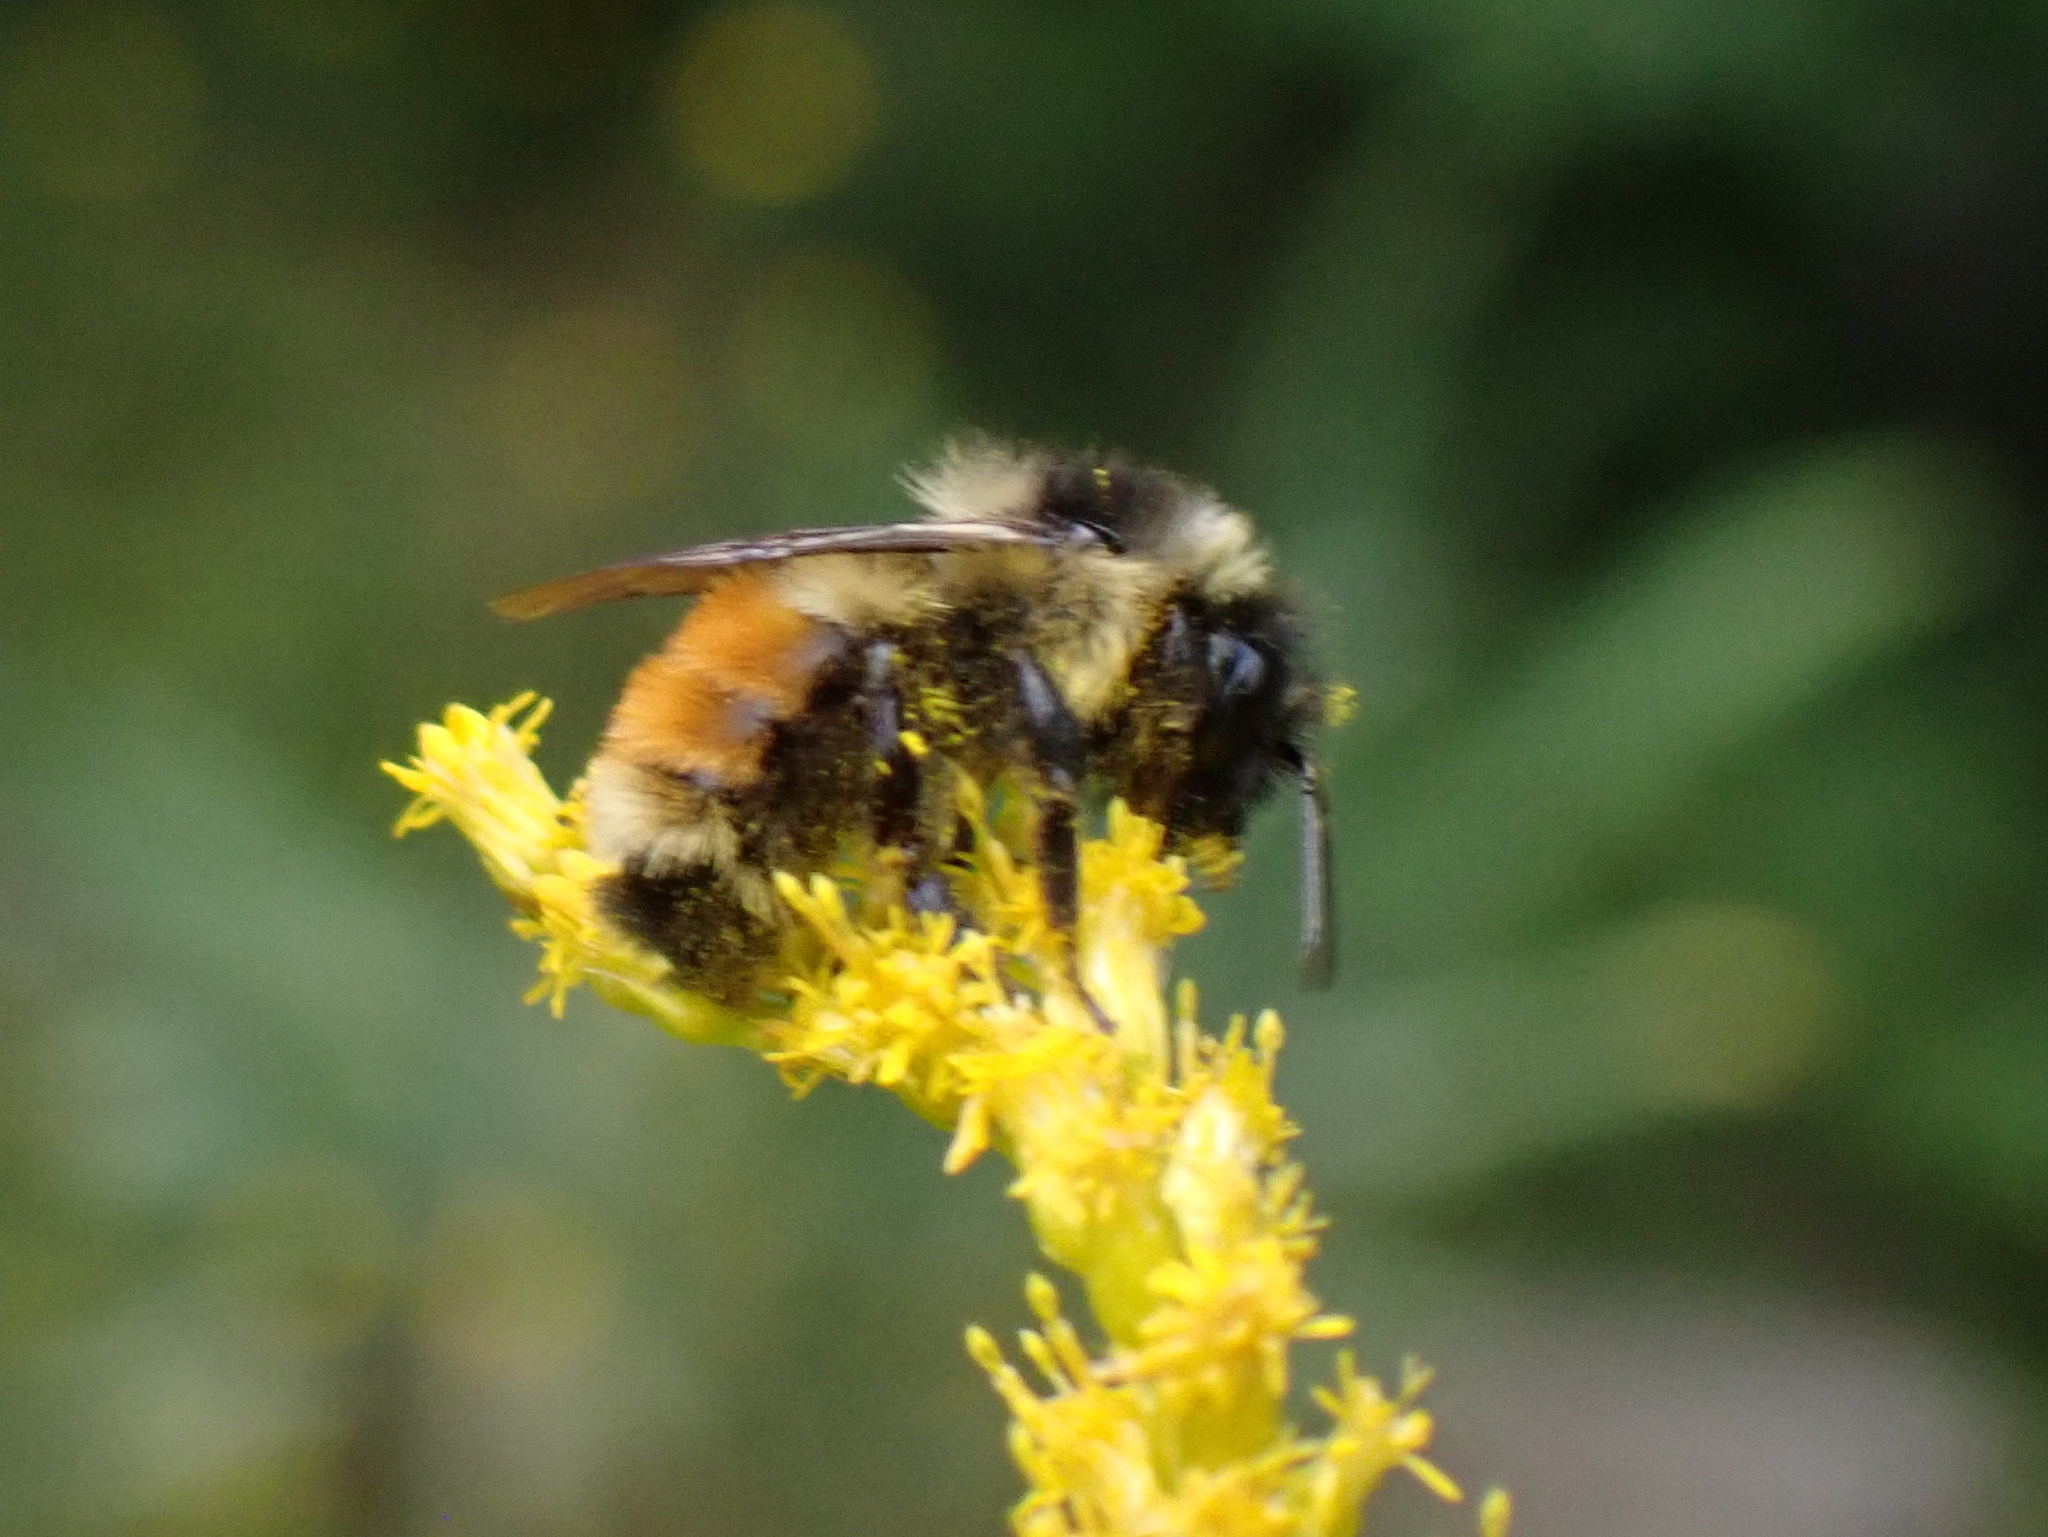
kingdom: Animalia
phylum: Arthropoda
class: Insecta
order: Hymenoptera
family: Apidae
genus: Bombus
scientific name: Bombus ternarius
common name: Tri-colored bumble bee
